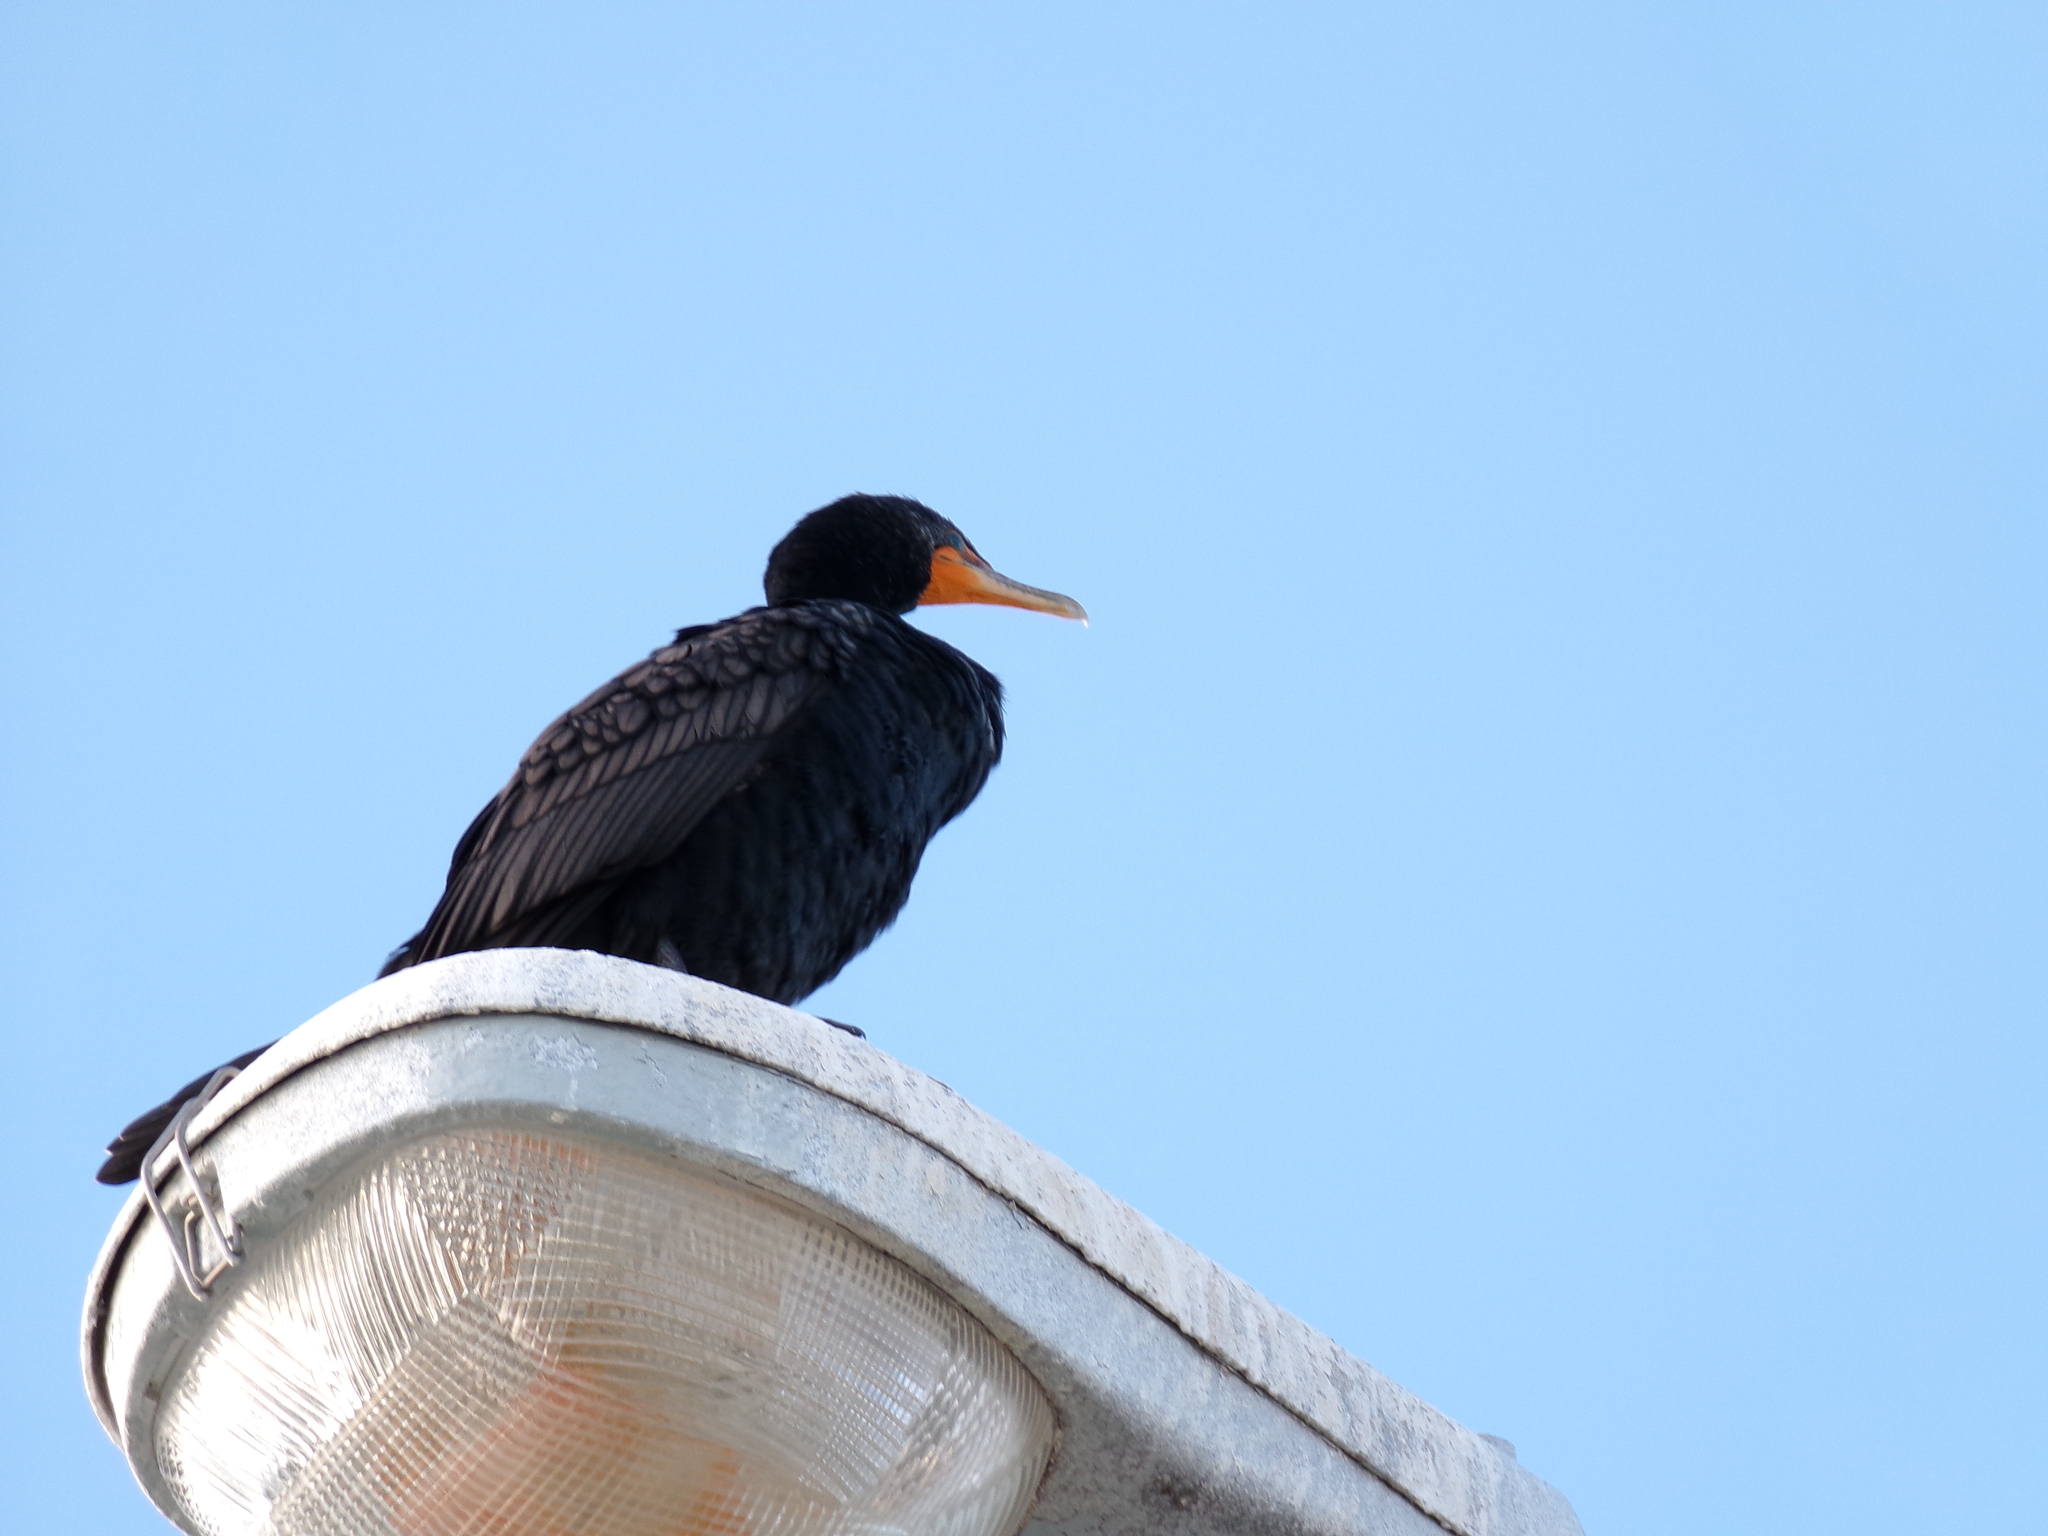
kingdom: Animalia
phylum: Chordata
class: Aves
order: Suliformes
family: Phalacrocoracidae
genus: Phalacrocorax
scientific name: Phalacrocorax auritus
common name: Double-crested cormorant
